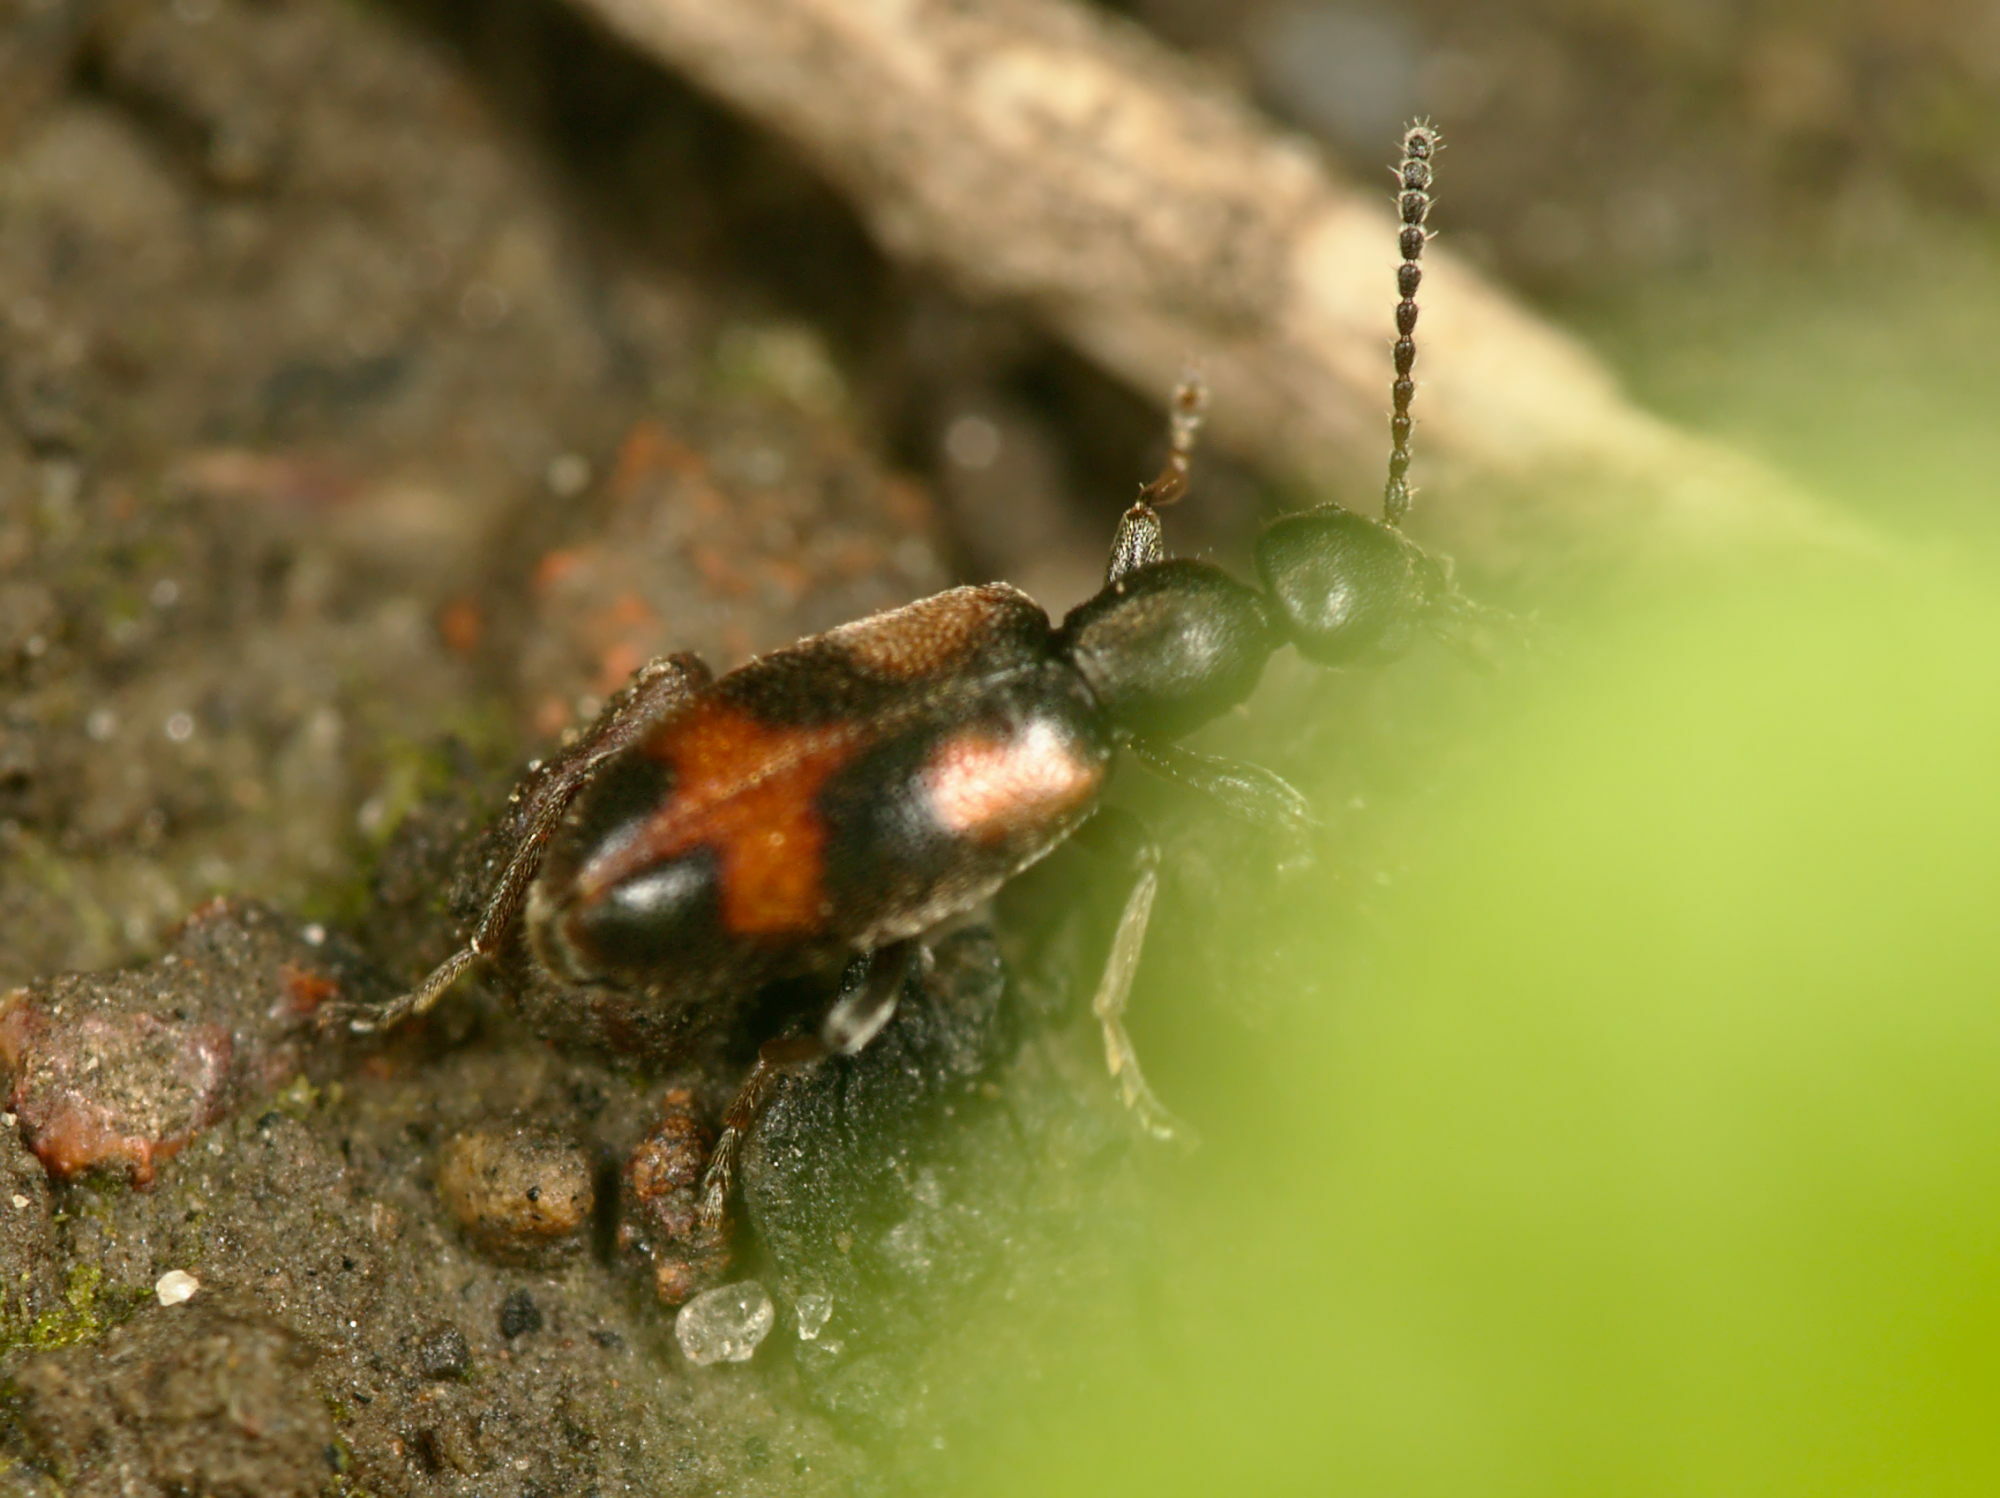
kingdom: Animalia
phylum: Arthropoda
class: Insecta
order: Coleoptera
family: Anthicidae
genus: Anthicus
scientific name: Anthicus antherinus
